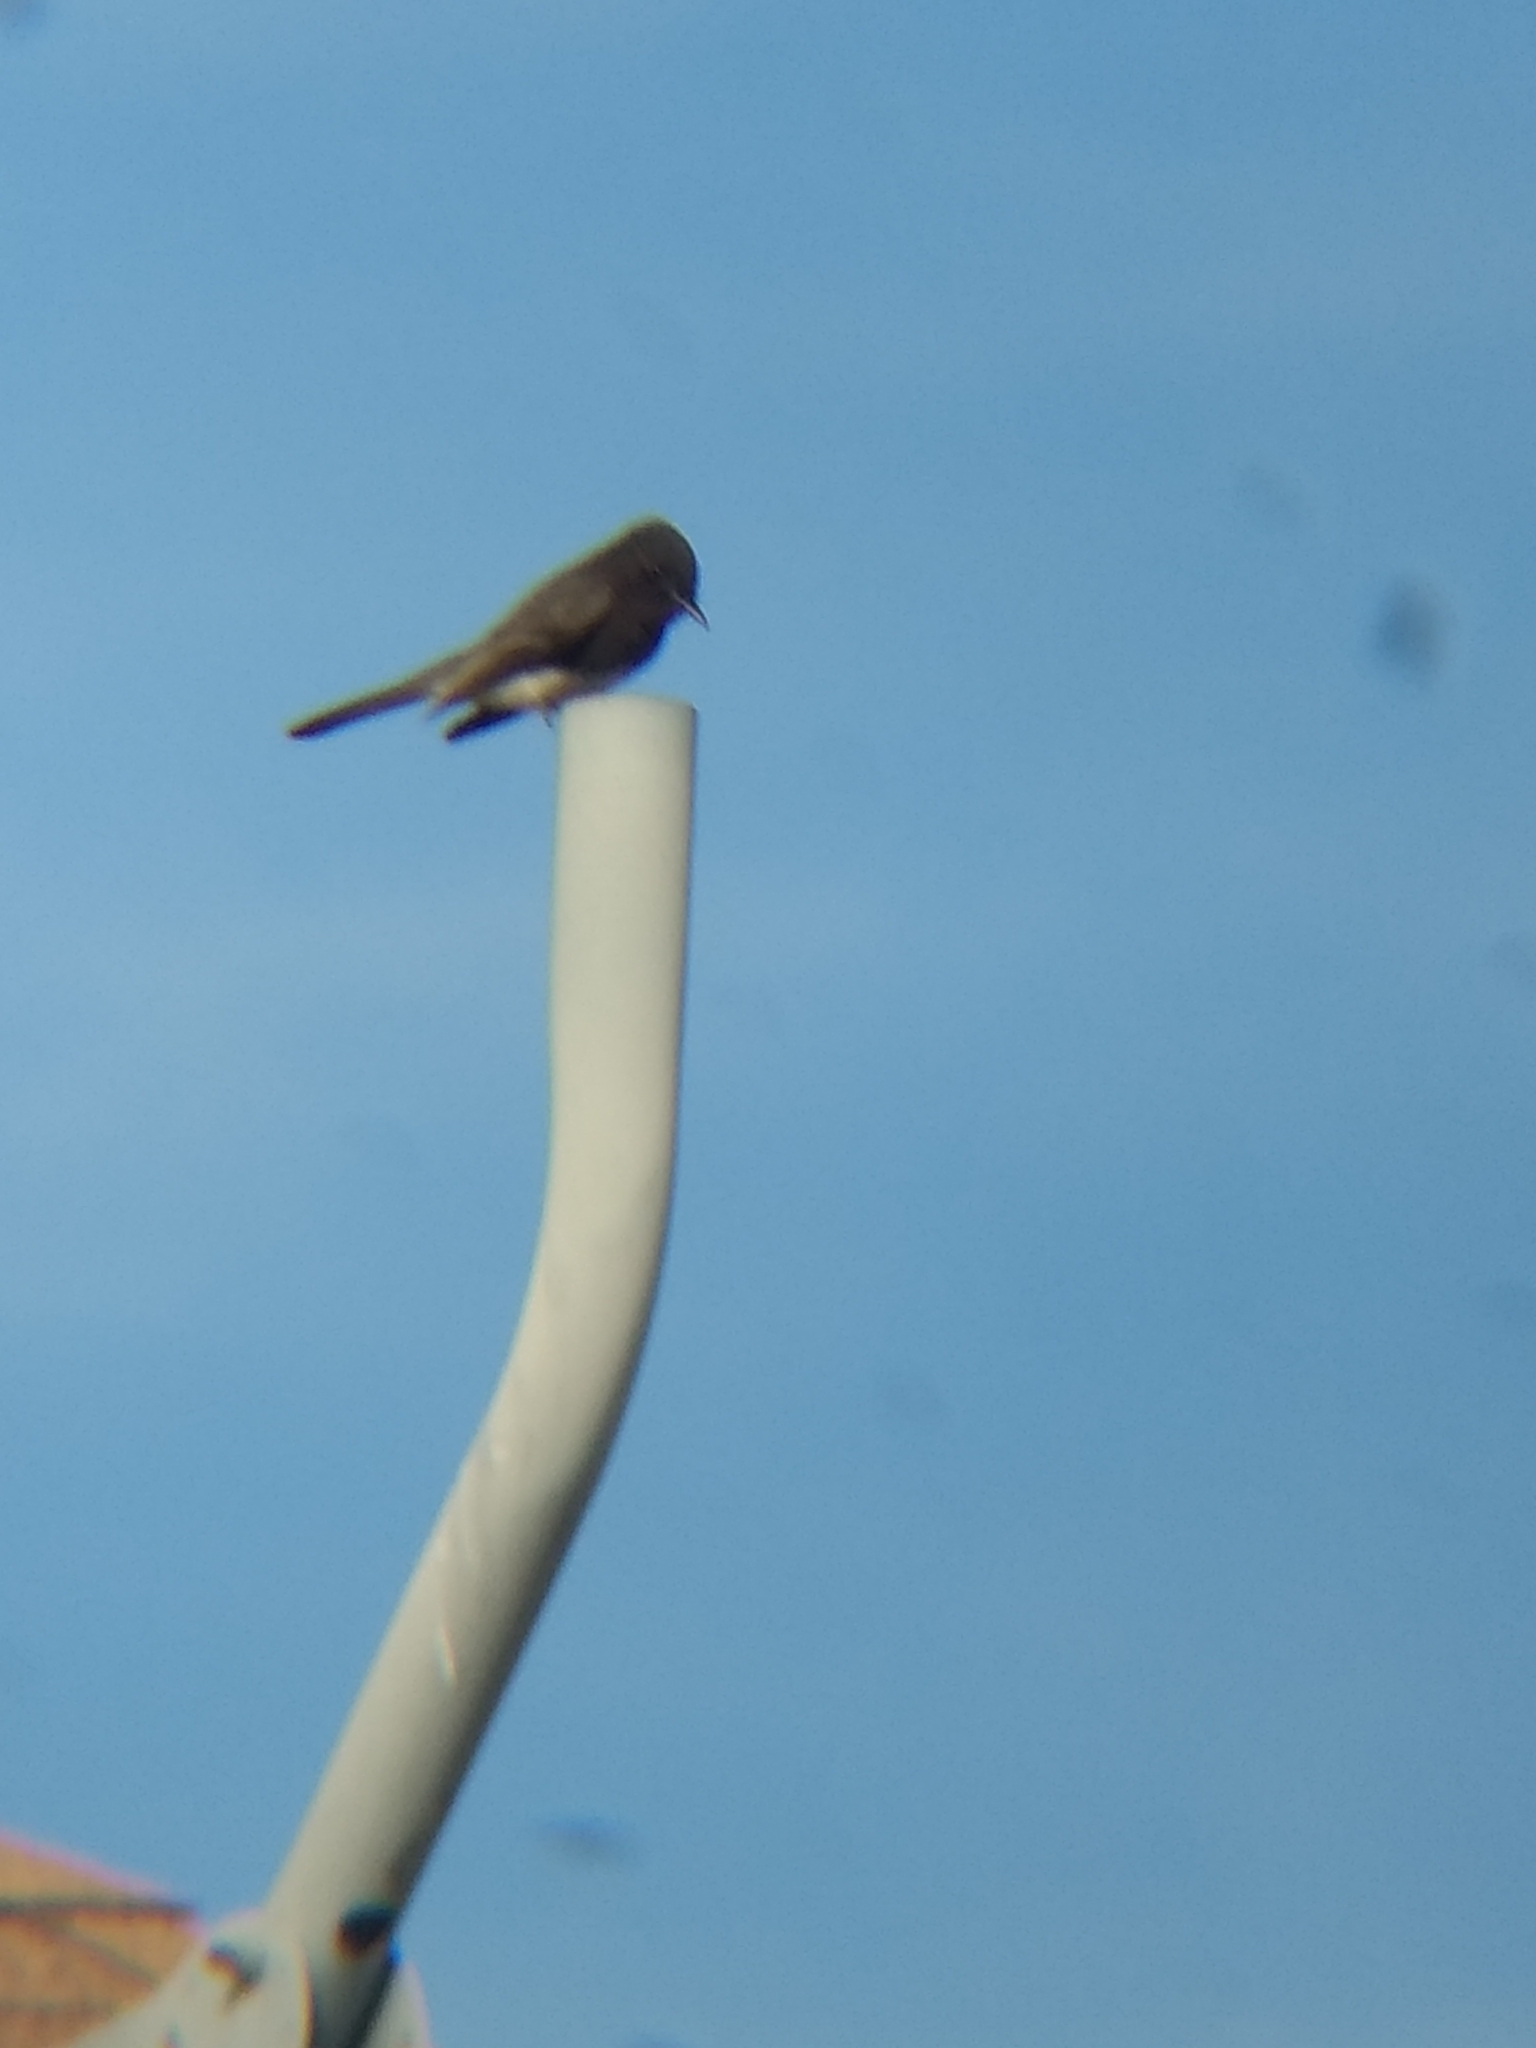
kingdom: Animalia
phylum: Chordata
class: Aves
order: Passeriformes
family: Tyrannidae
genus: Sayornis
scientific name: Sayornis nigricans
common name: Black phoebe
